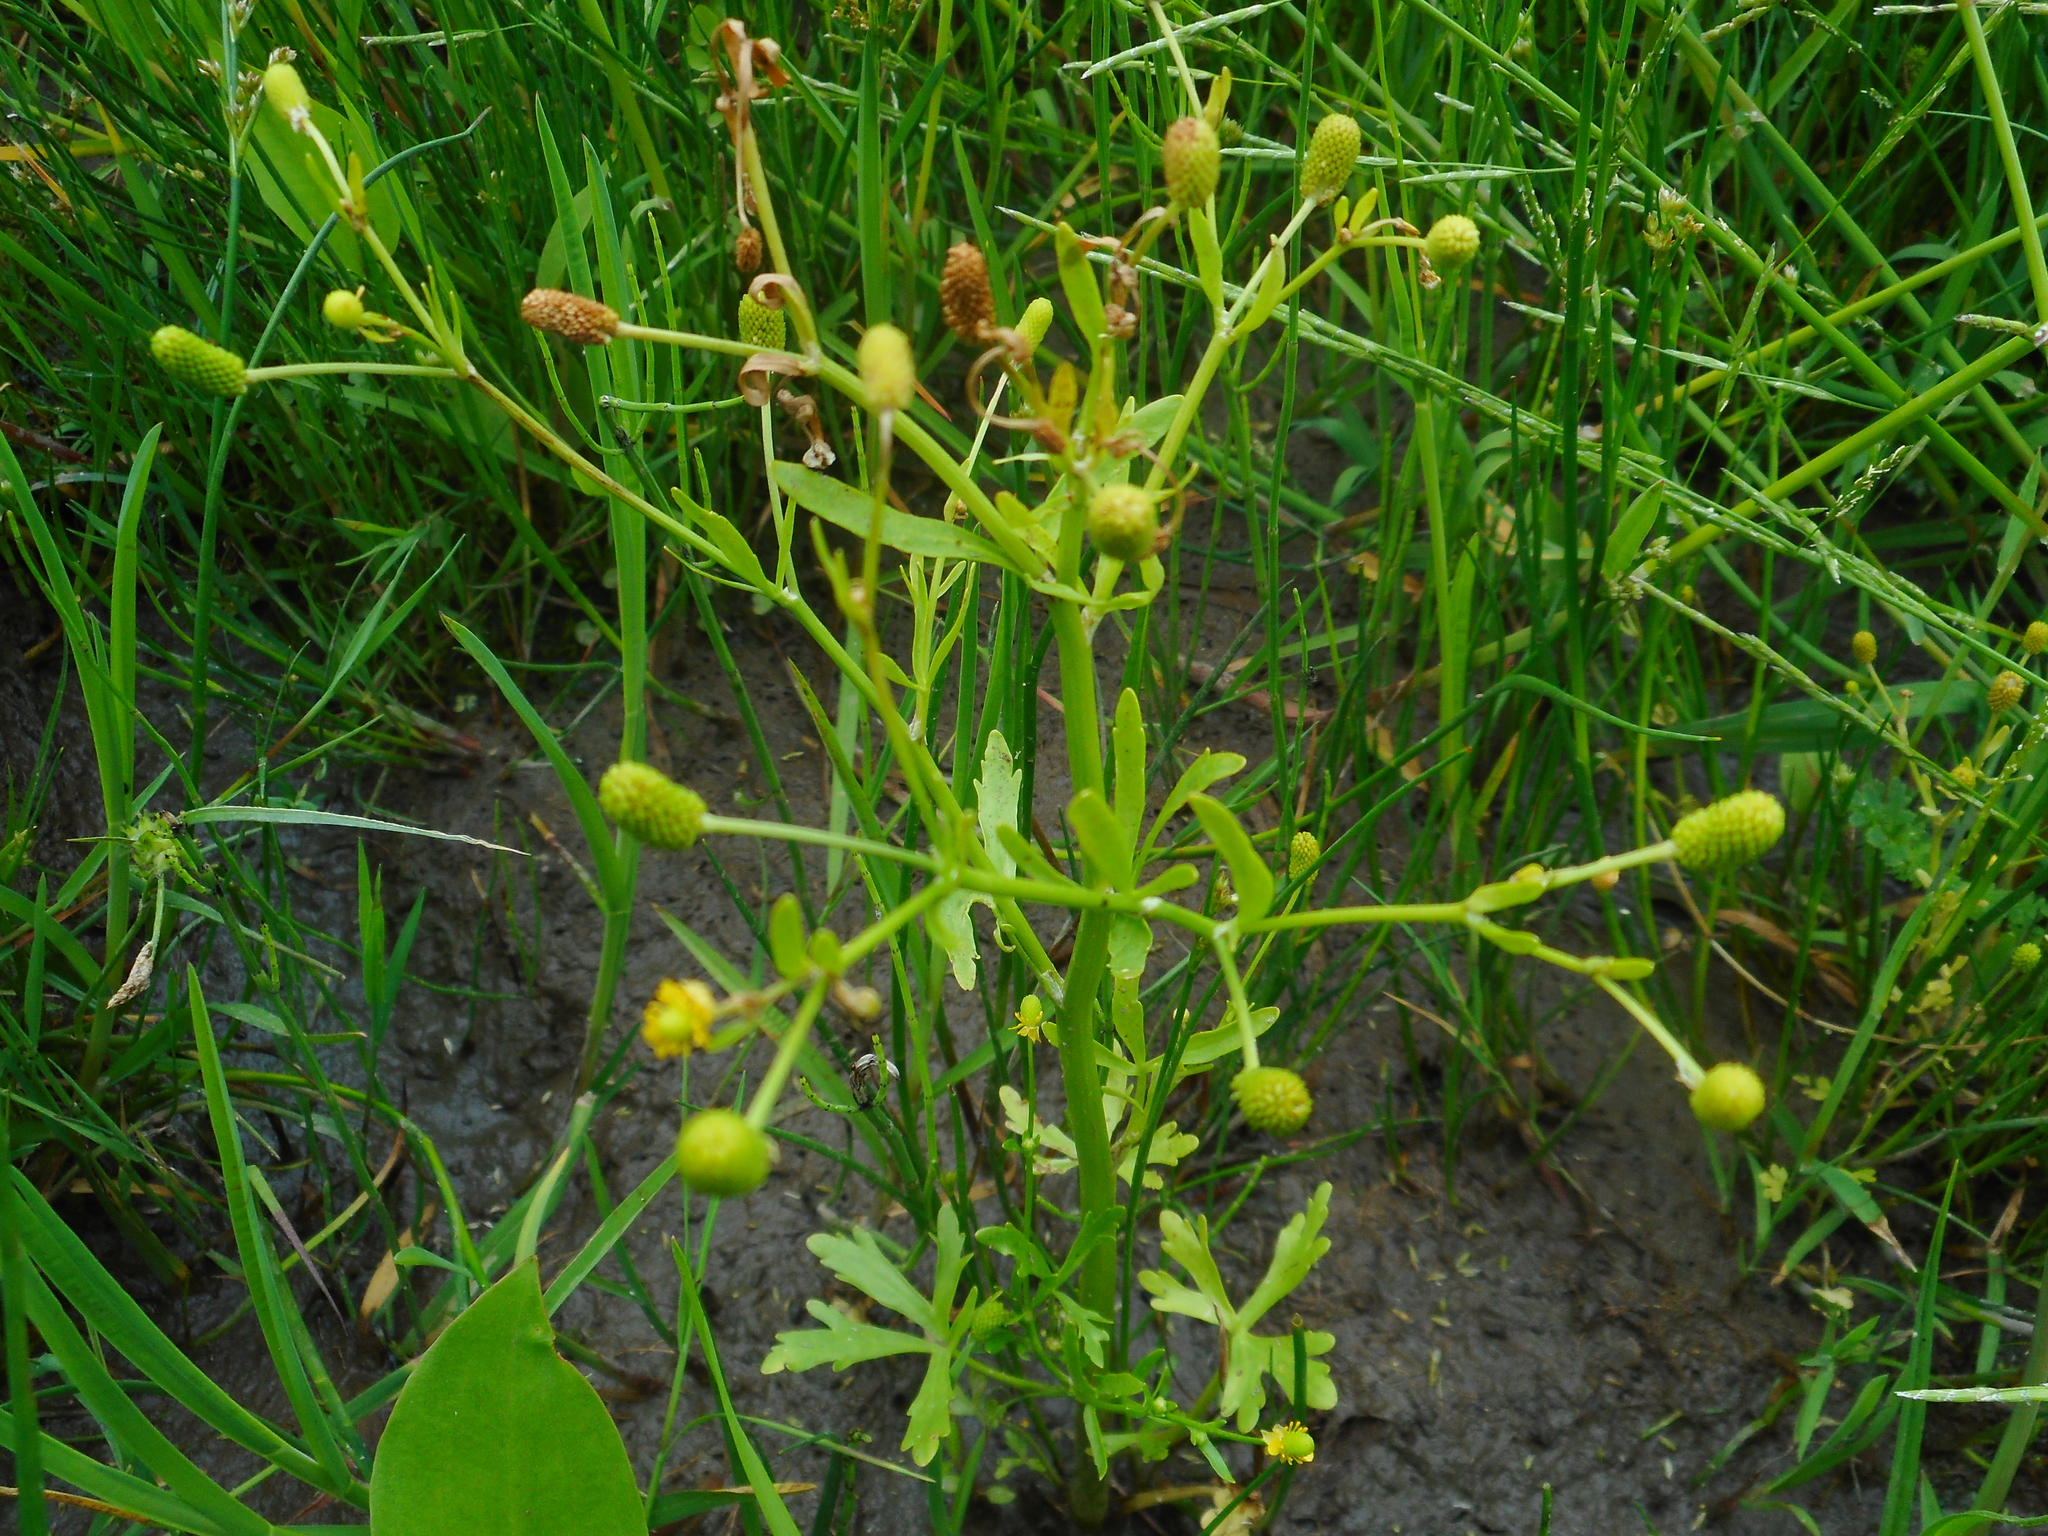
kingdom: Plantae
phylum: Tracheophyta
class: Magnoliopsida
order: Ranunculales
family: Ranunculaceae
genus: Ranunculus
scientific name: Ranunculus sceleratus
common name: Celery-leaved buttercup
